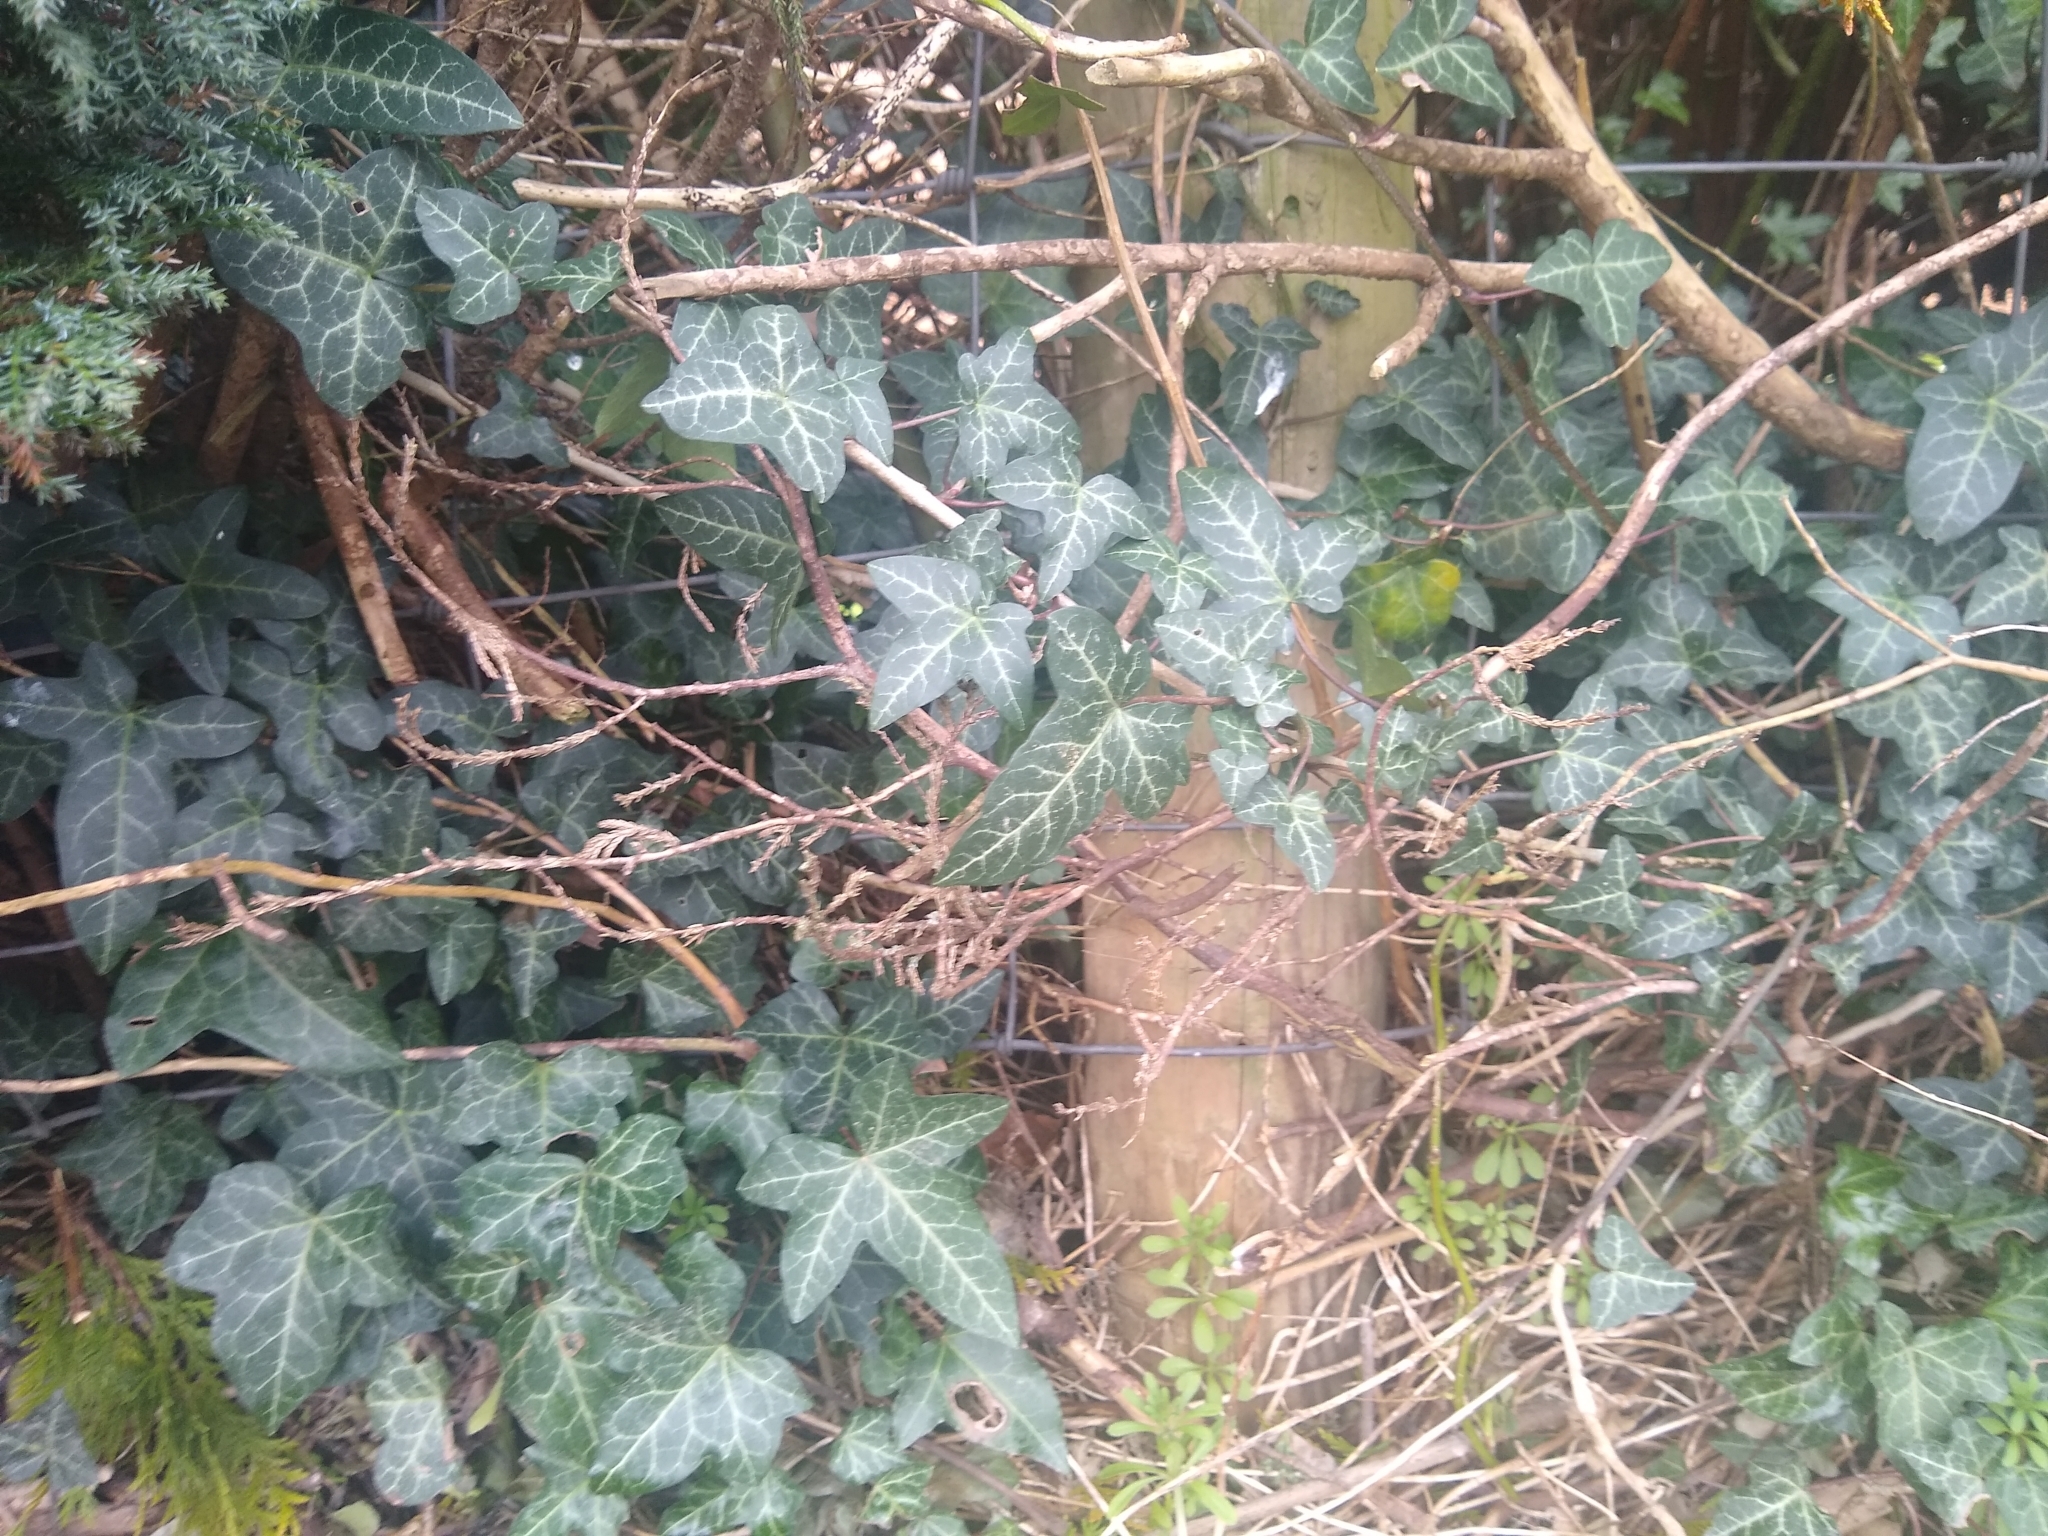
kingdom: Plantae
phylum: Tracheophyta
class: Magnoliopsida
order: Apiales
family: Araliaceae
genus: Hedera
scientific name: Hedera helix
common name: Ivy
